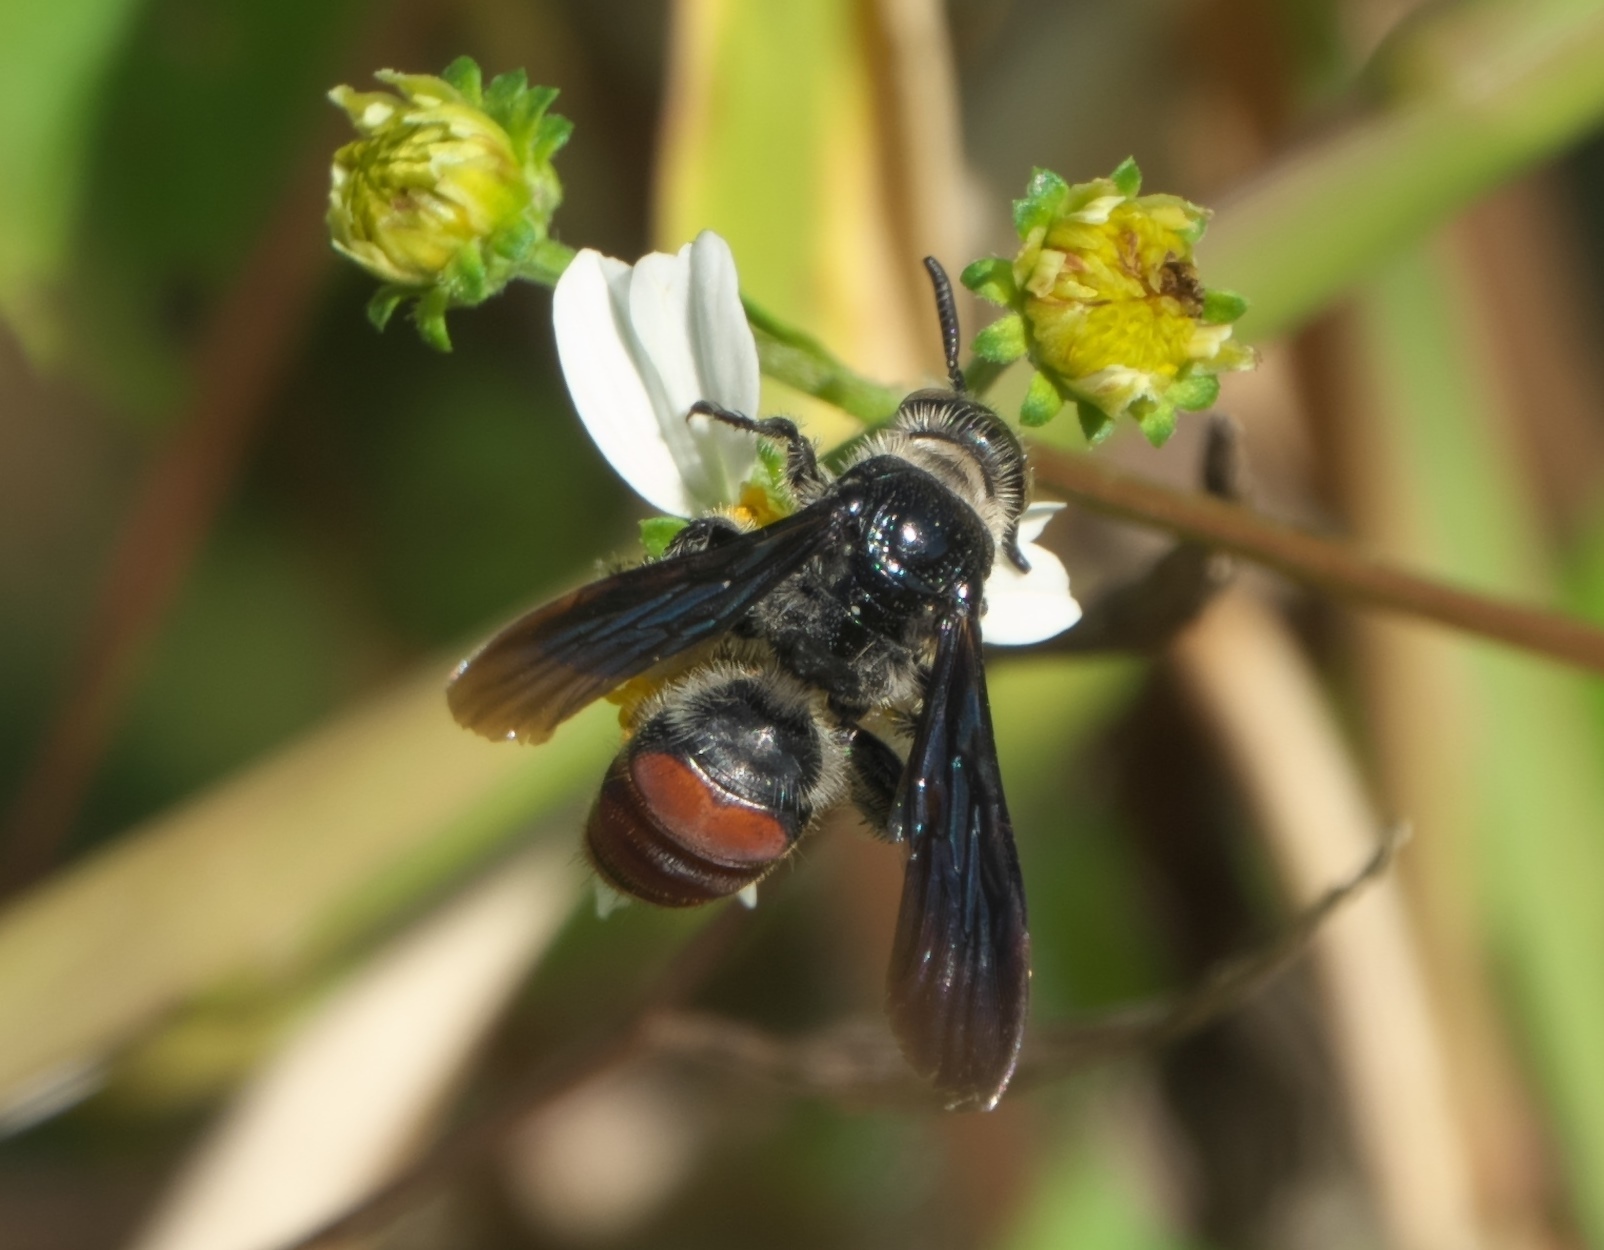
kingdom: Animalia
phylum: Arthropoda
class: Insecta
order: Hymenoptera
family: Scoliidae
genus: Dielis
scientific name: Dielis dorsata
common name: Scoliid wasp
